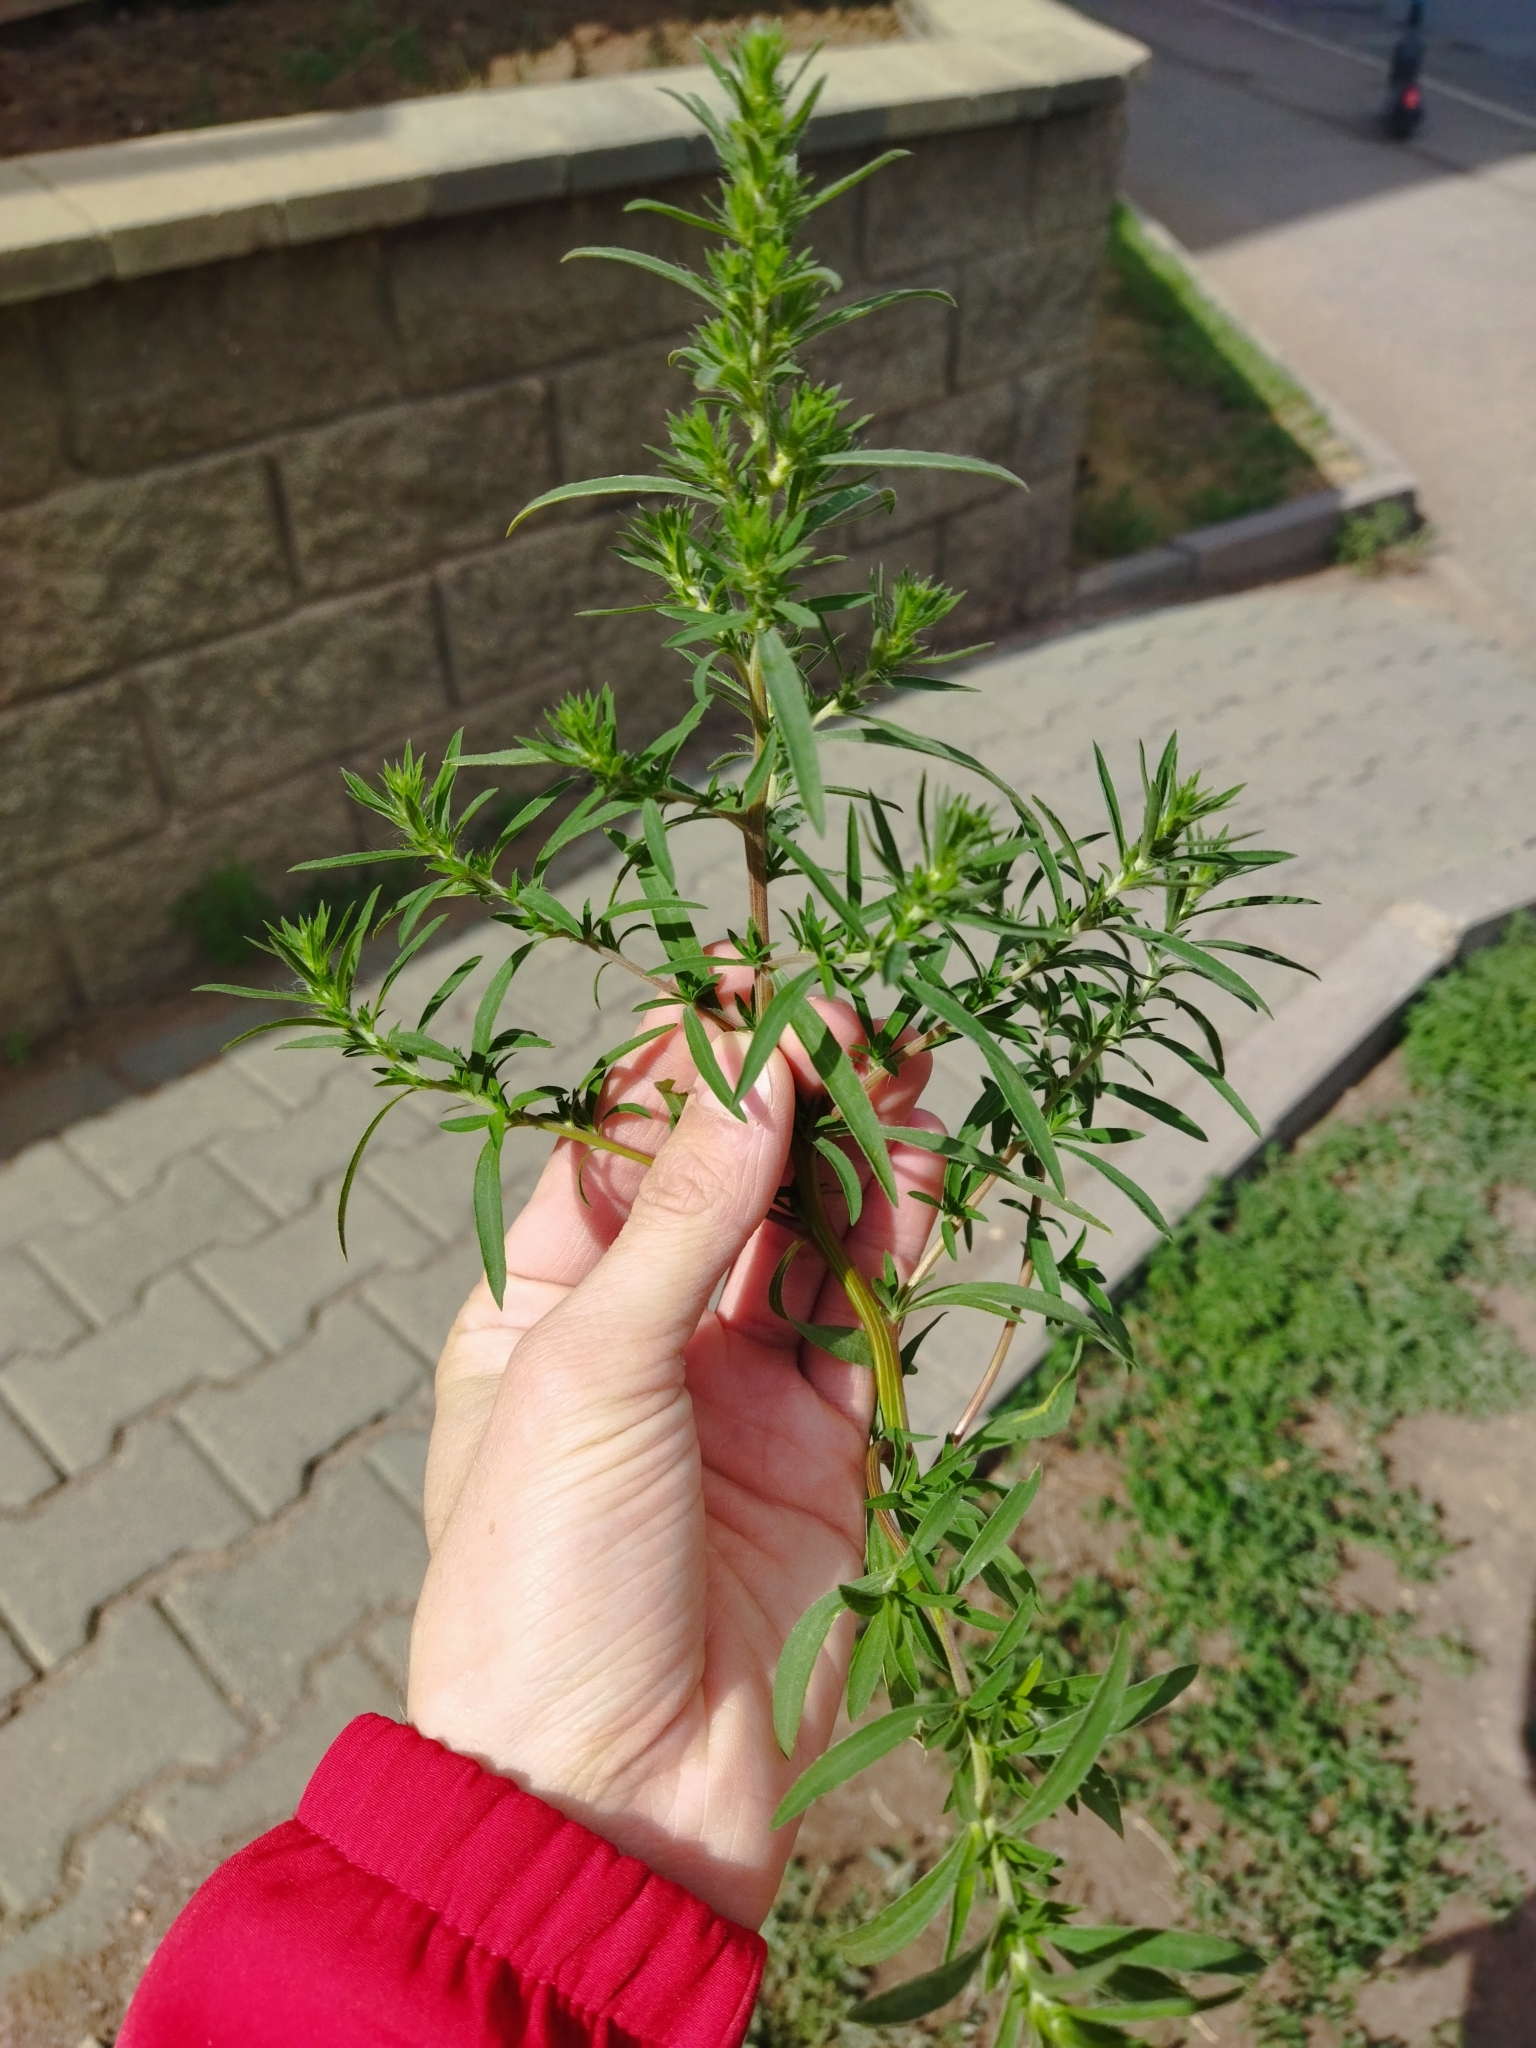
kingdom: Plantae
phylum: Tracheophyta
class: Magnoliopsida
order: Caryophyllales
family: Amaranthaceae
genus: Bassia
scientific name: Bassia scoparia
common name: Belvedere
